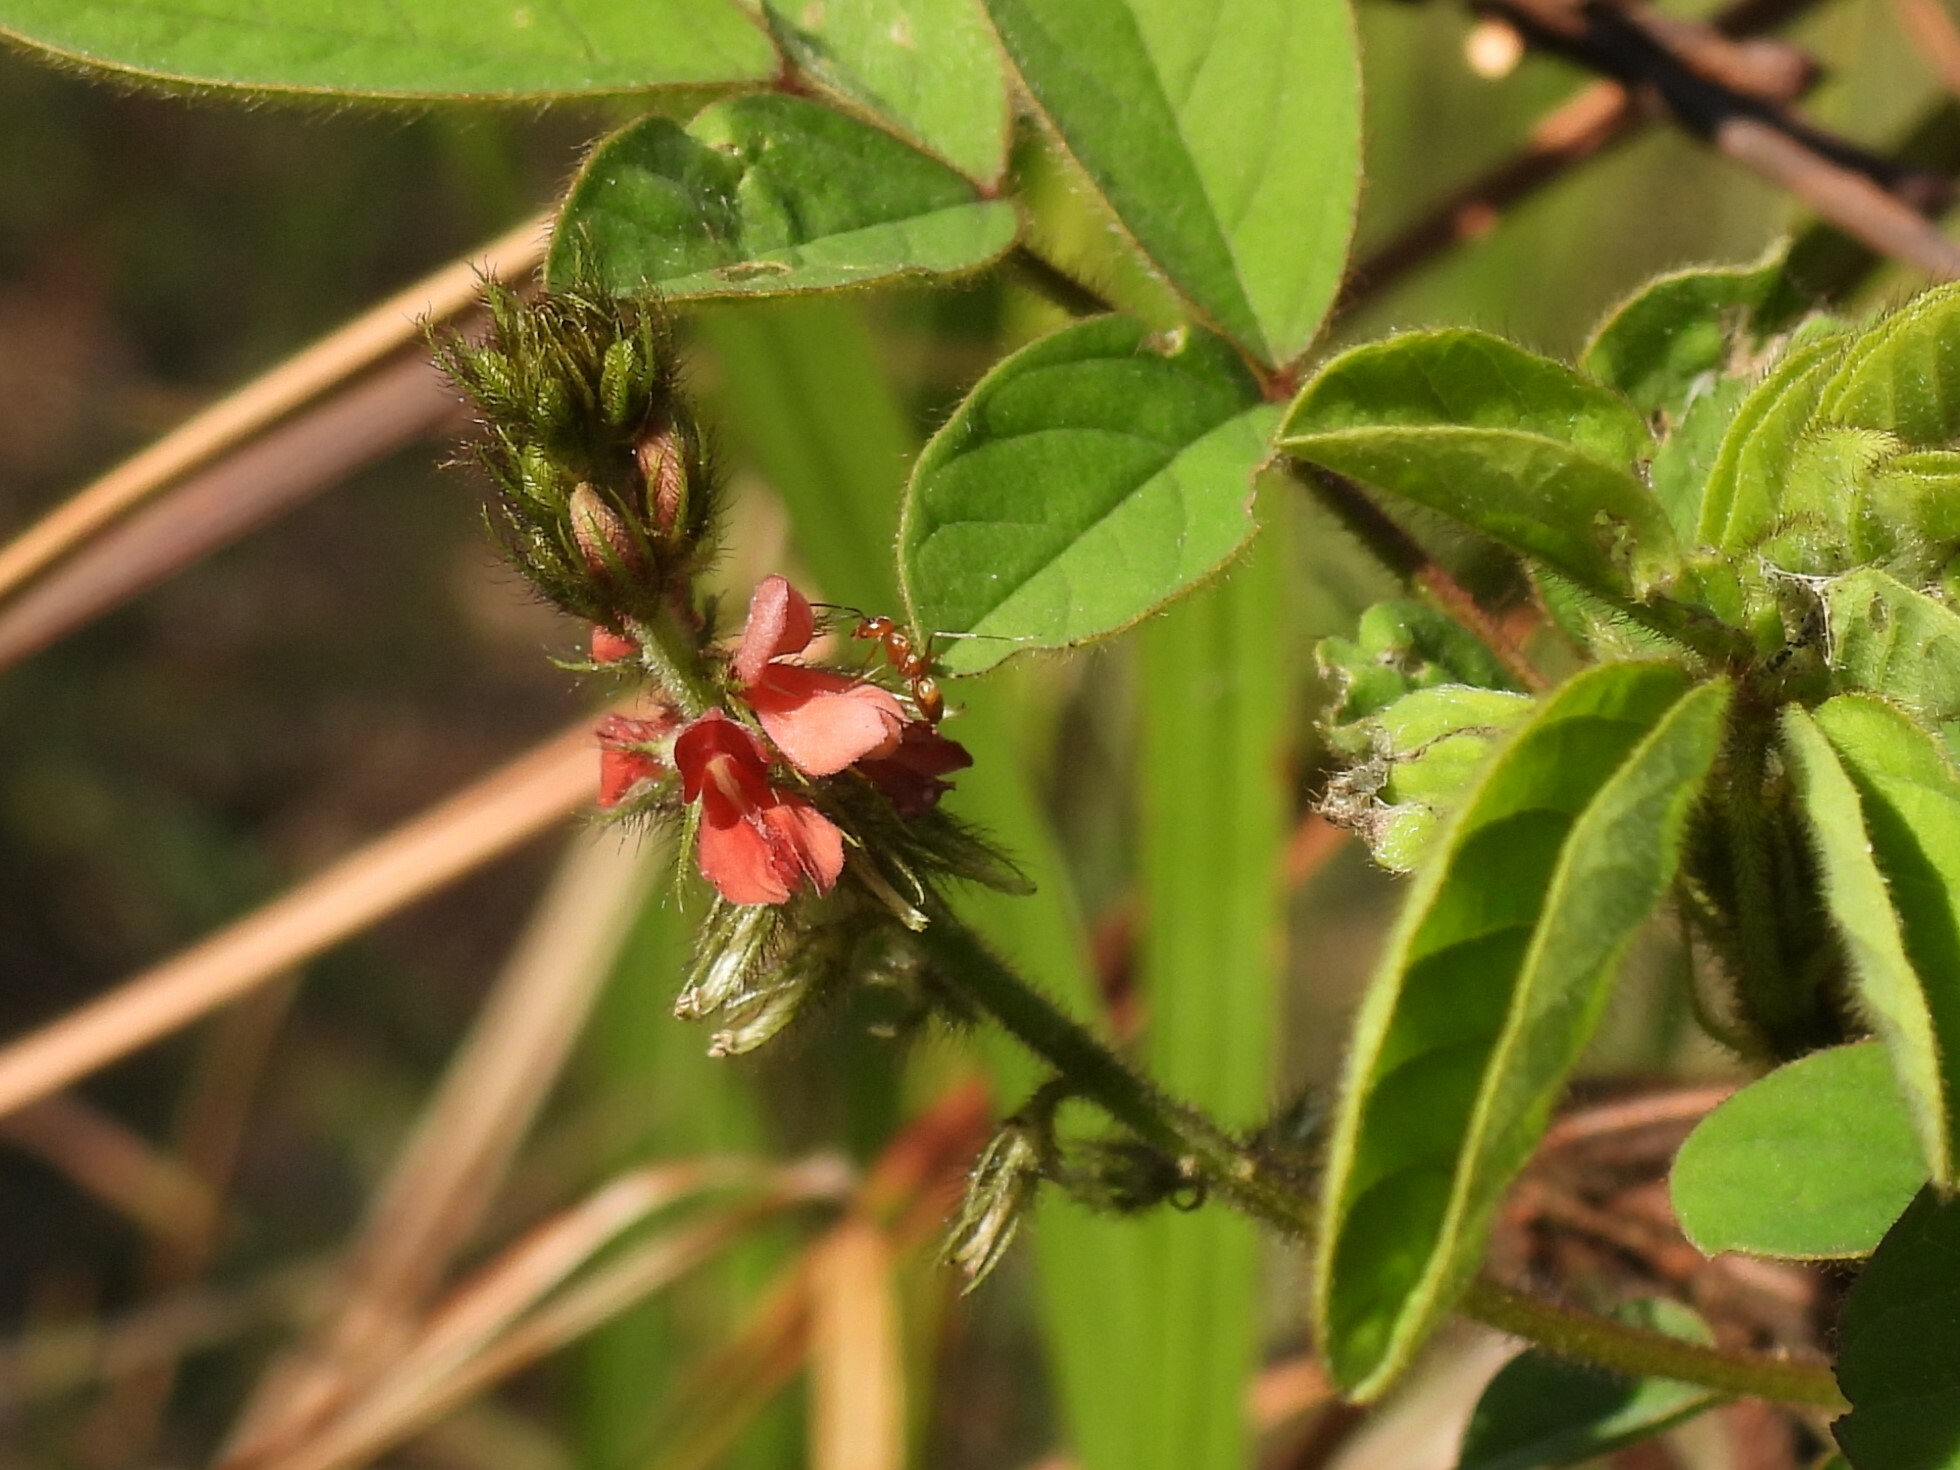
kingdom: Plantae
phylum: Tracheophyta
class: Magnoliopsida
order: Fabales
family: Fabaceae
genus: Indigofera
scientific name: Indigofera hirsuta
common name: Hairy indigo
